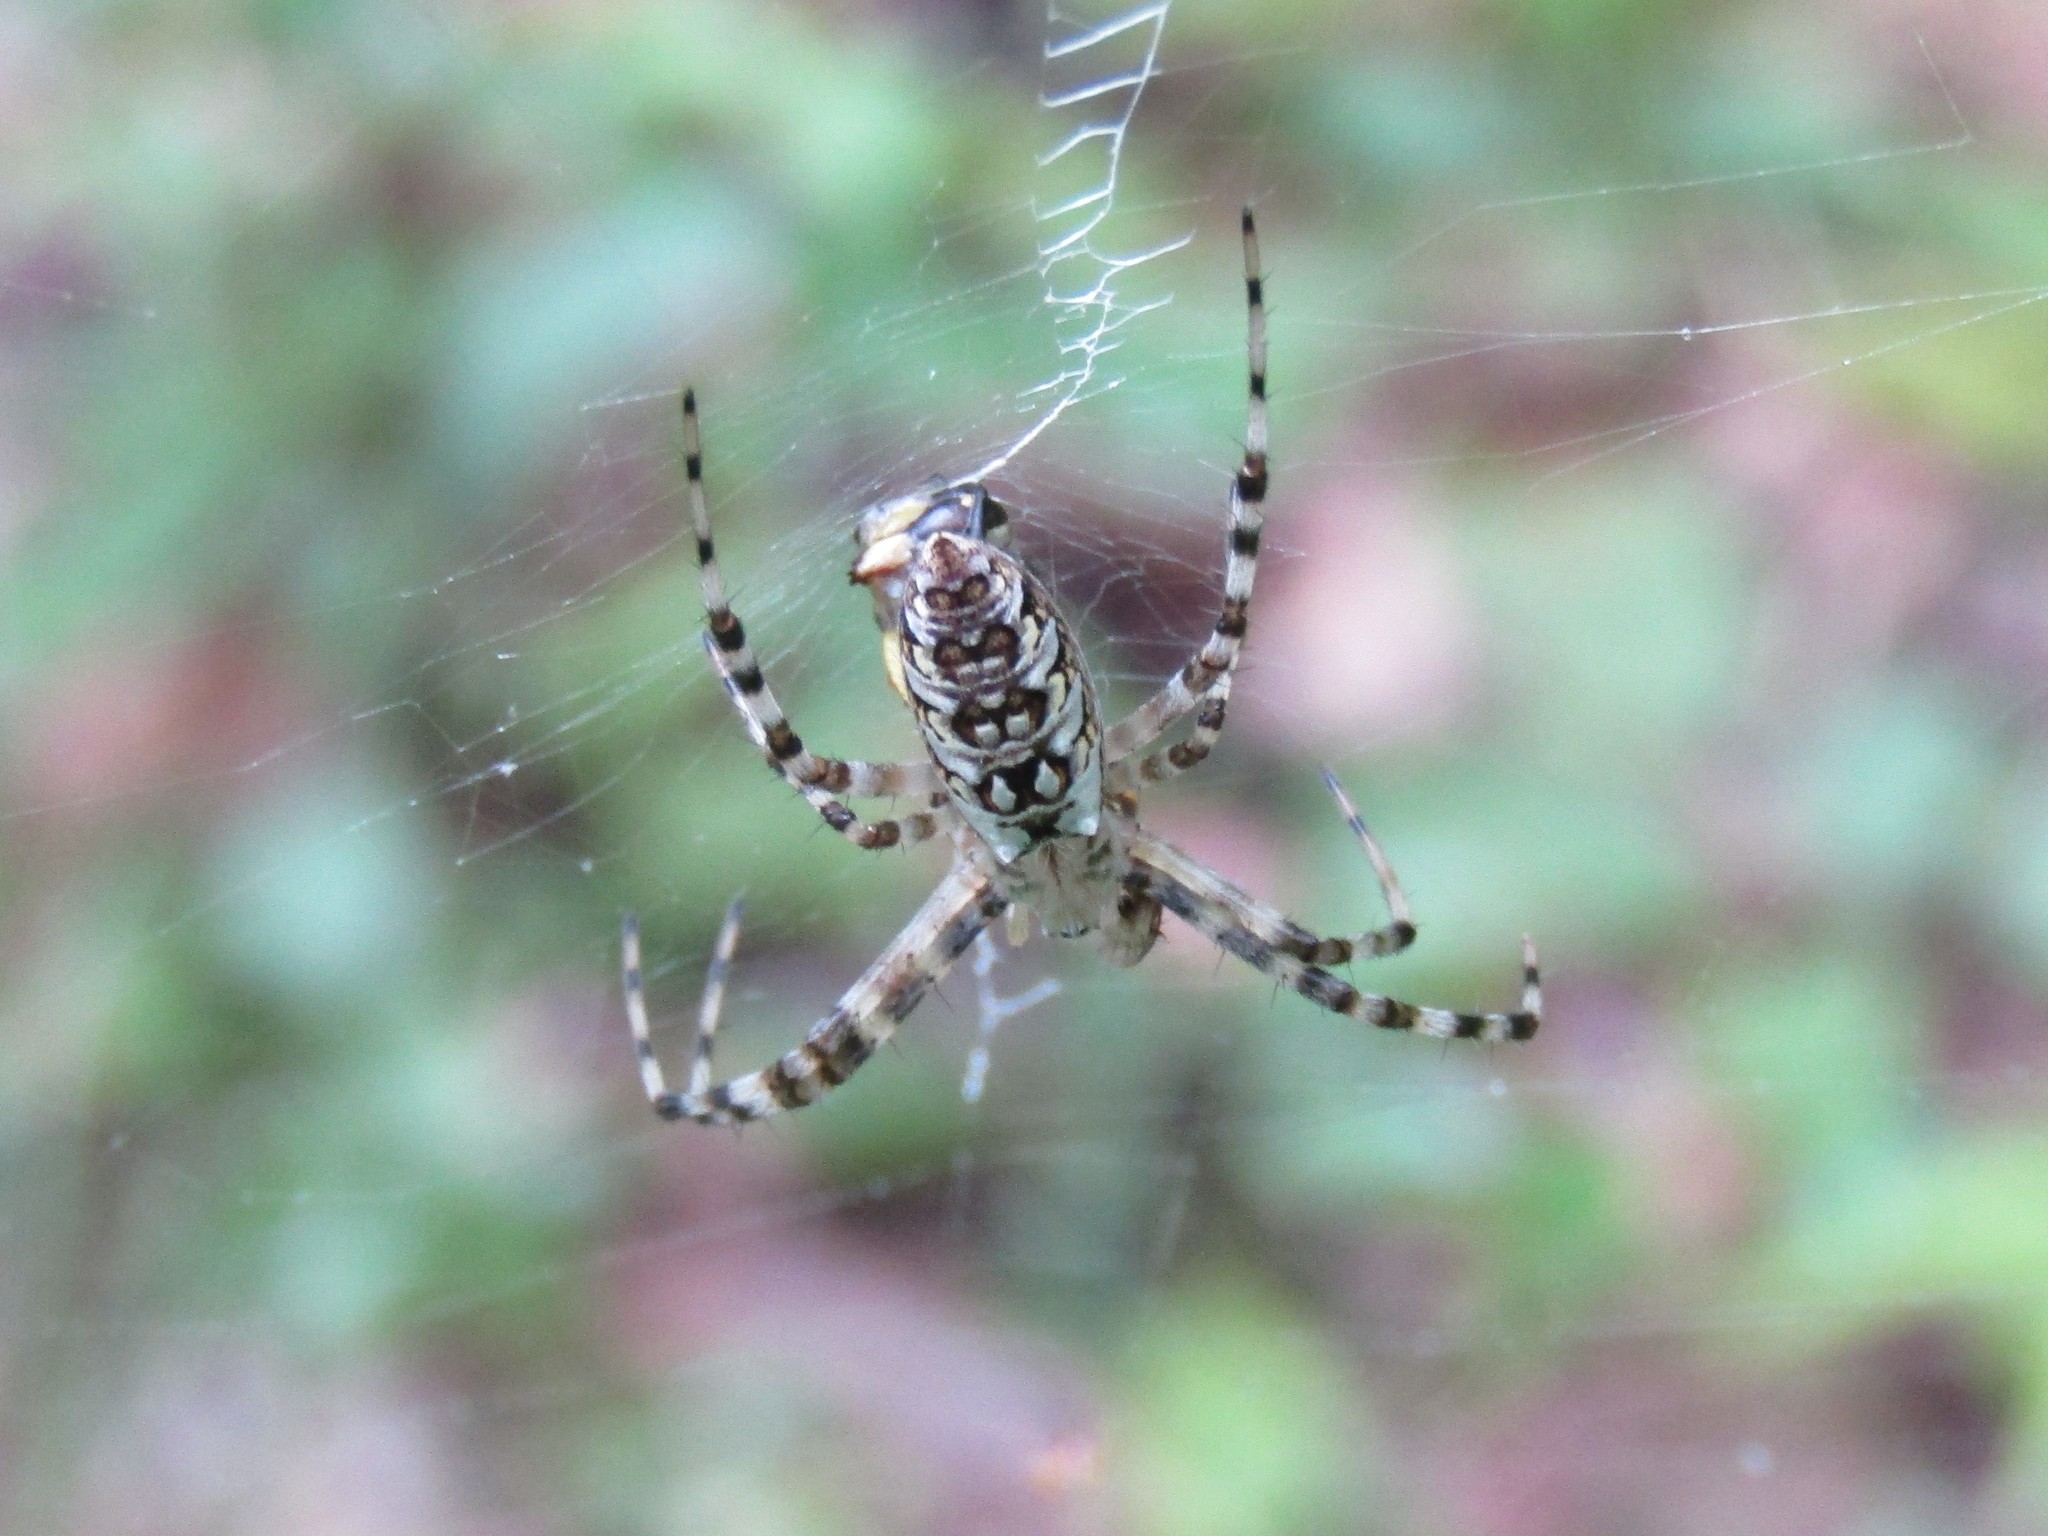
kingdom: Animalia
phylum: Arthropoda
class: Arachnida
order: Araneae
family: Araneidae
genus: Argiope
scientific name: Argiope aurantia
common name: Orb weavers
